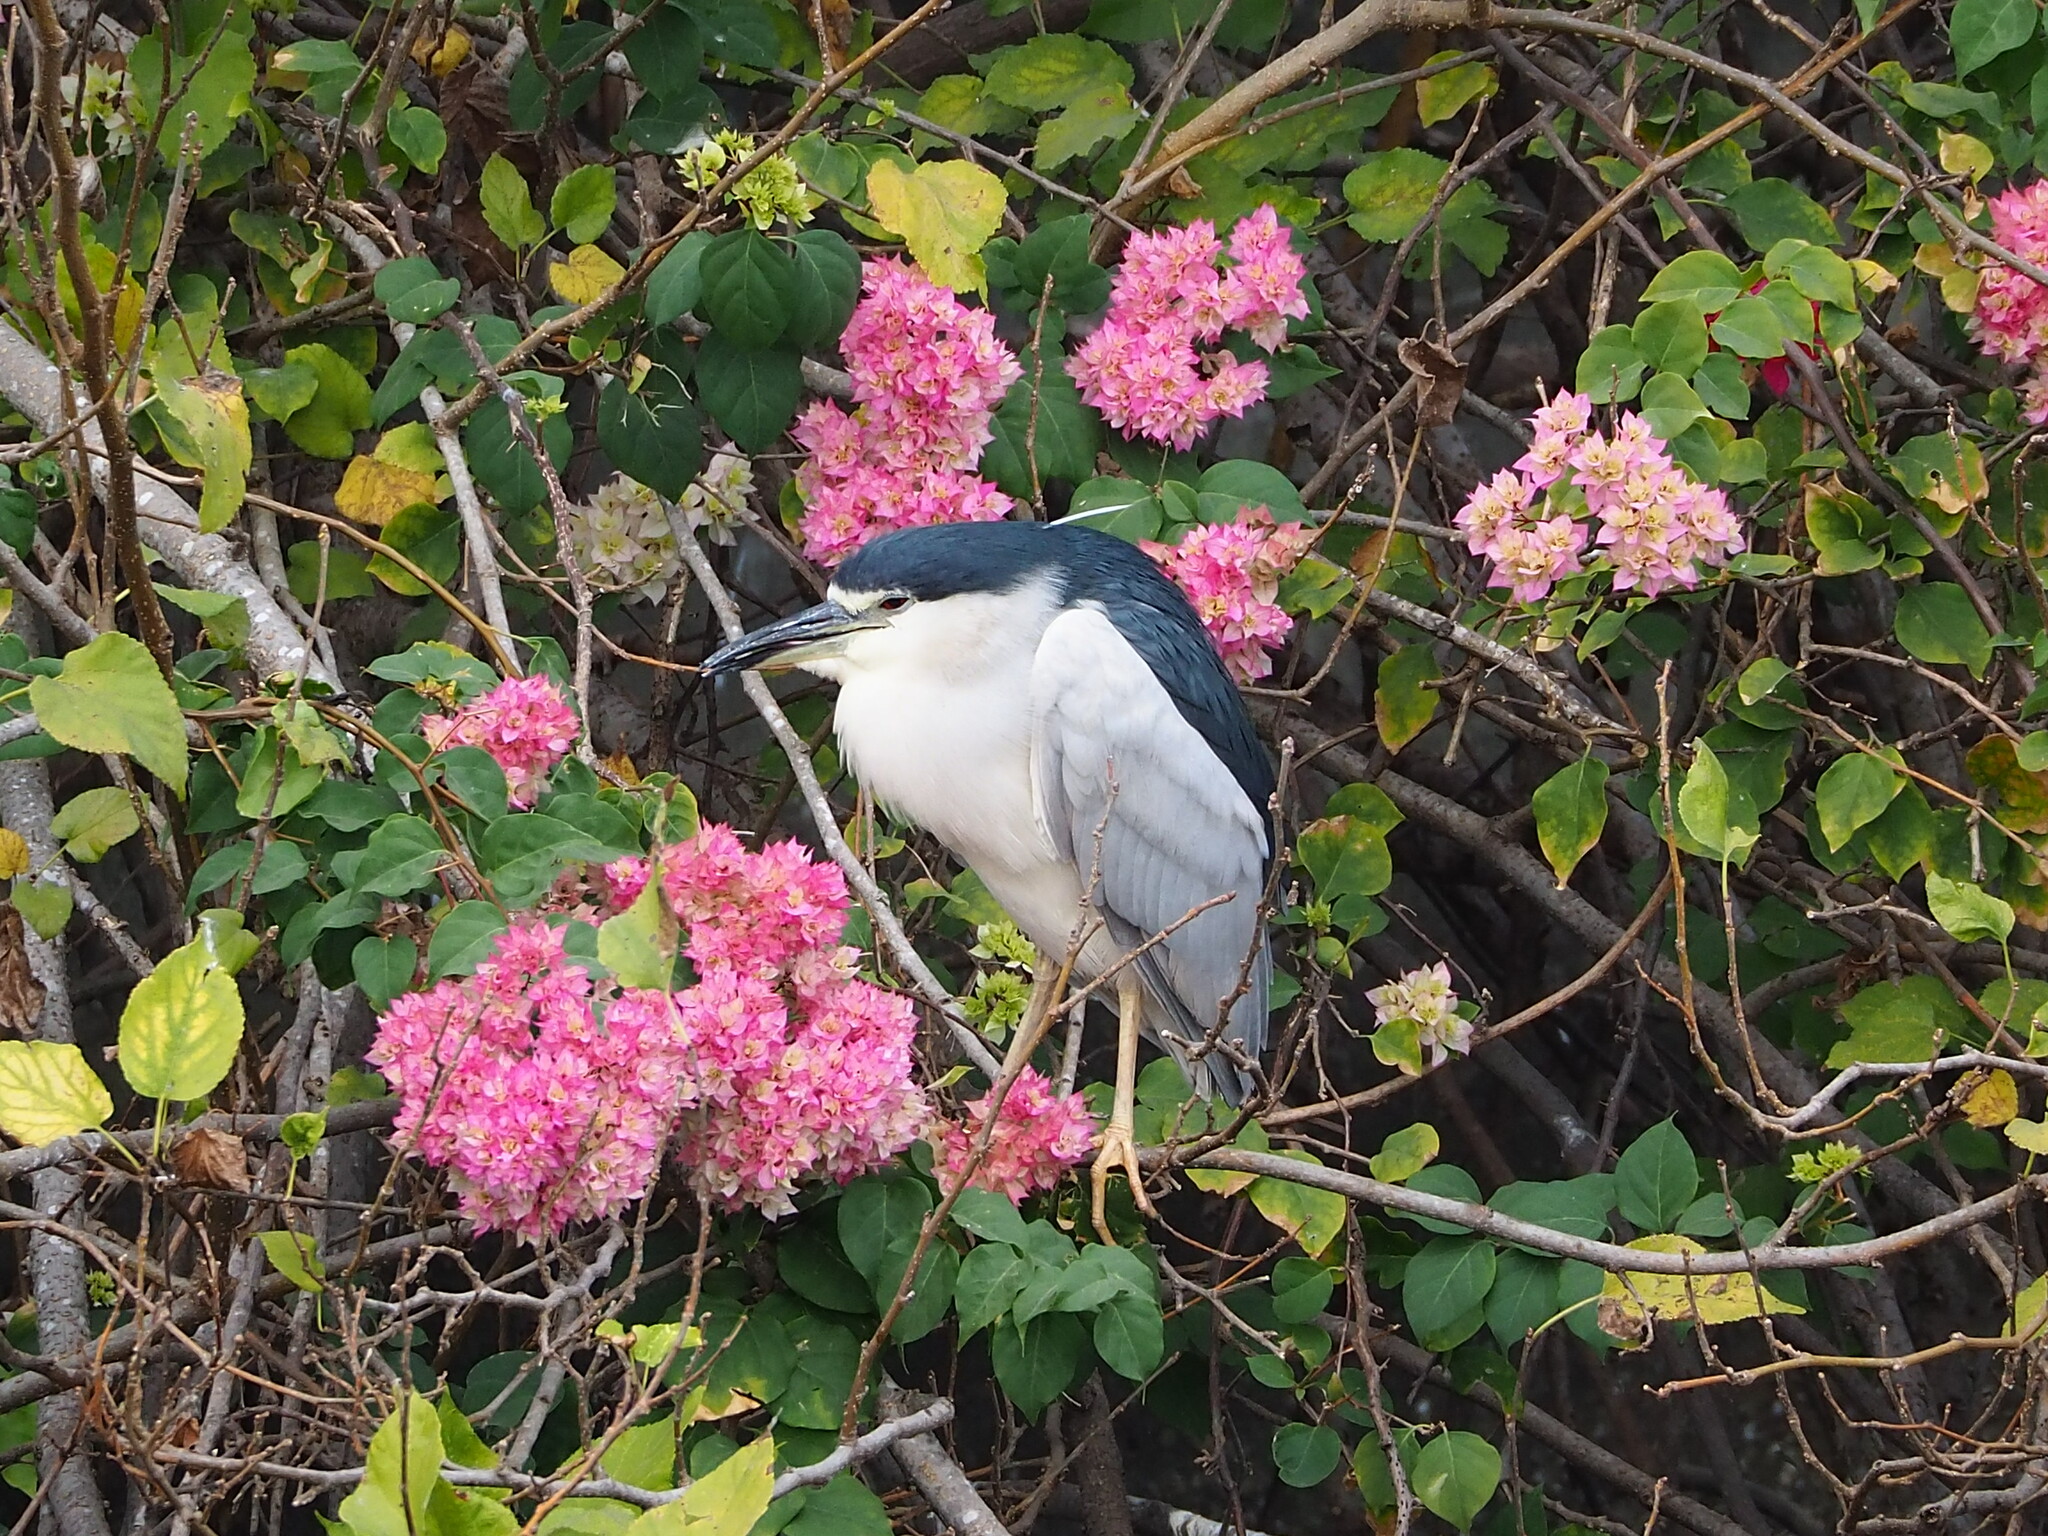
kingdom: Animalia
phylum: Chordata
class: Aves
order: Pelecaniformes
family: Ardeidae
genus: Nycticorax
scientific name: Nycticorax nycticorax
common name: Black-crowned night heron
